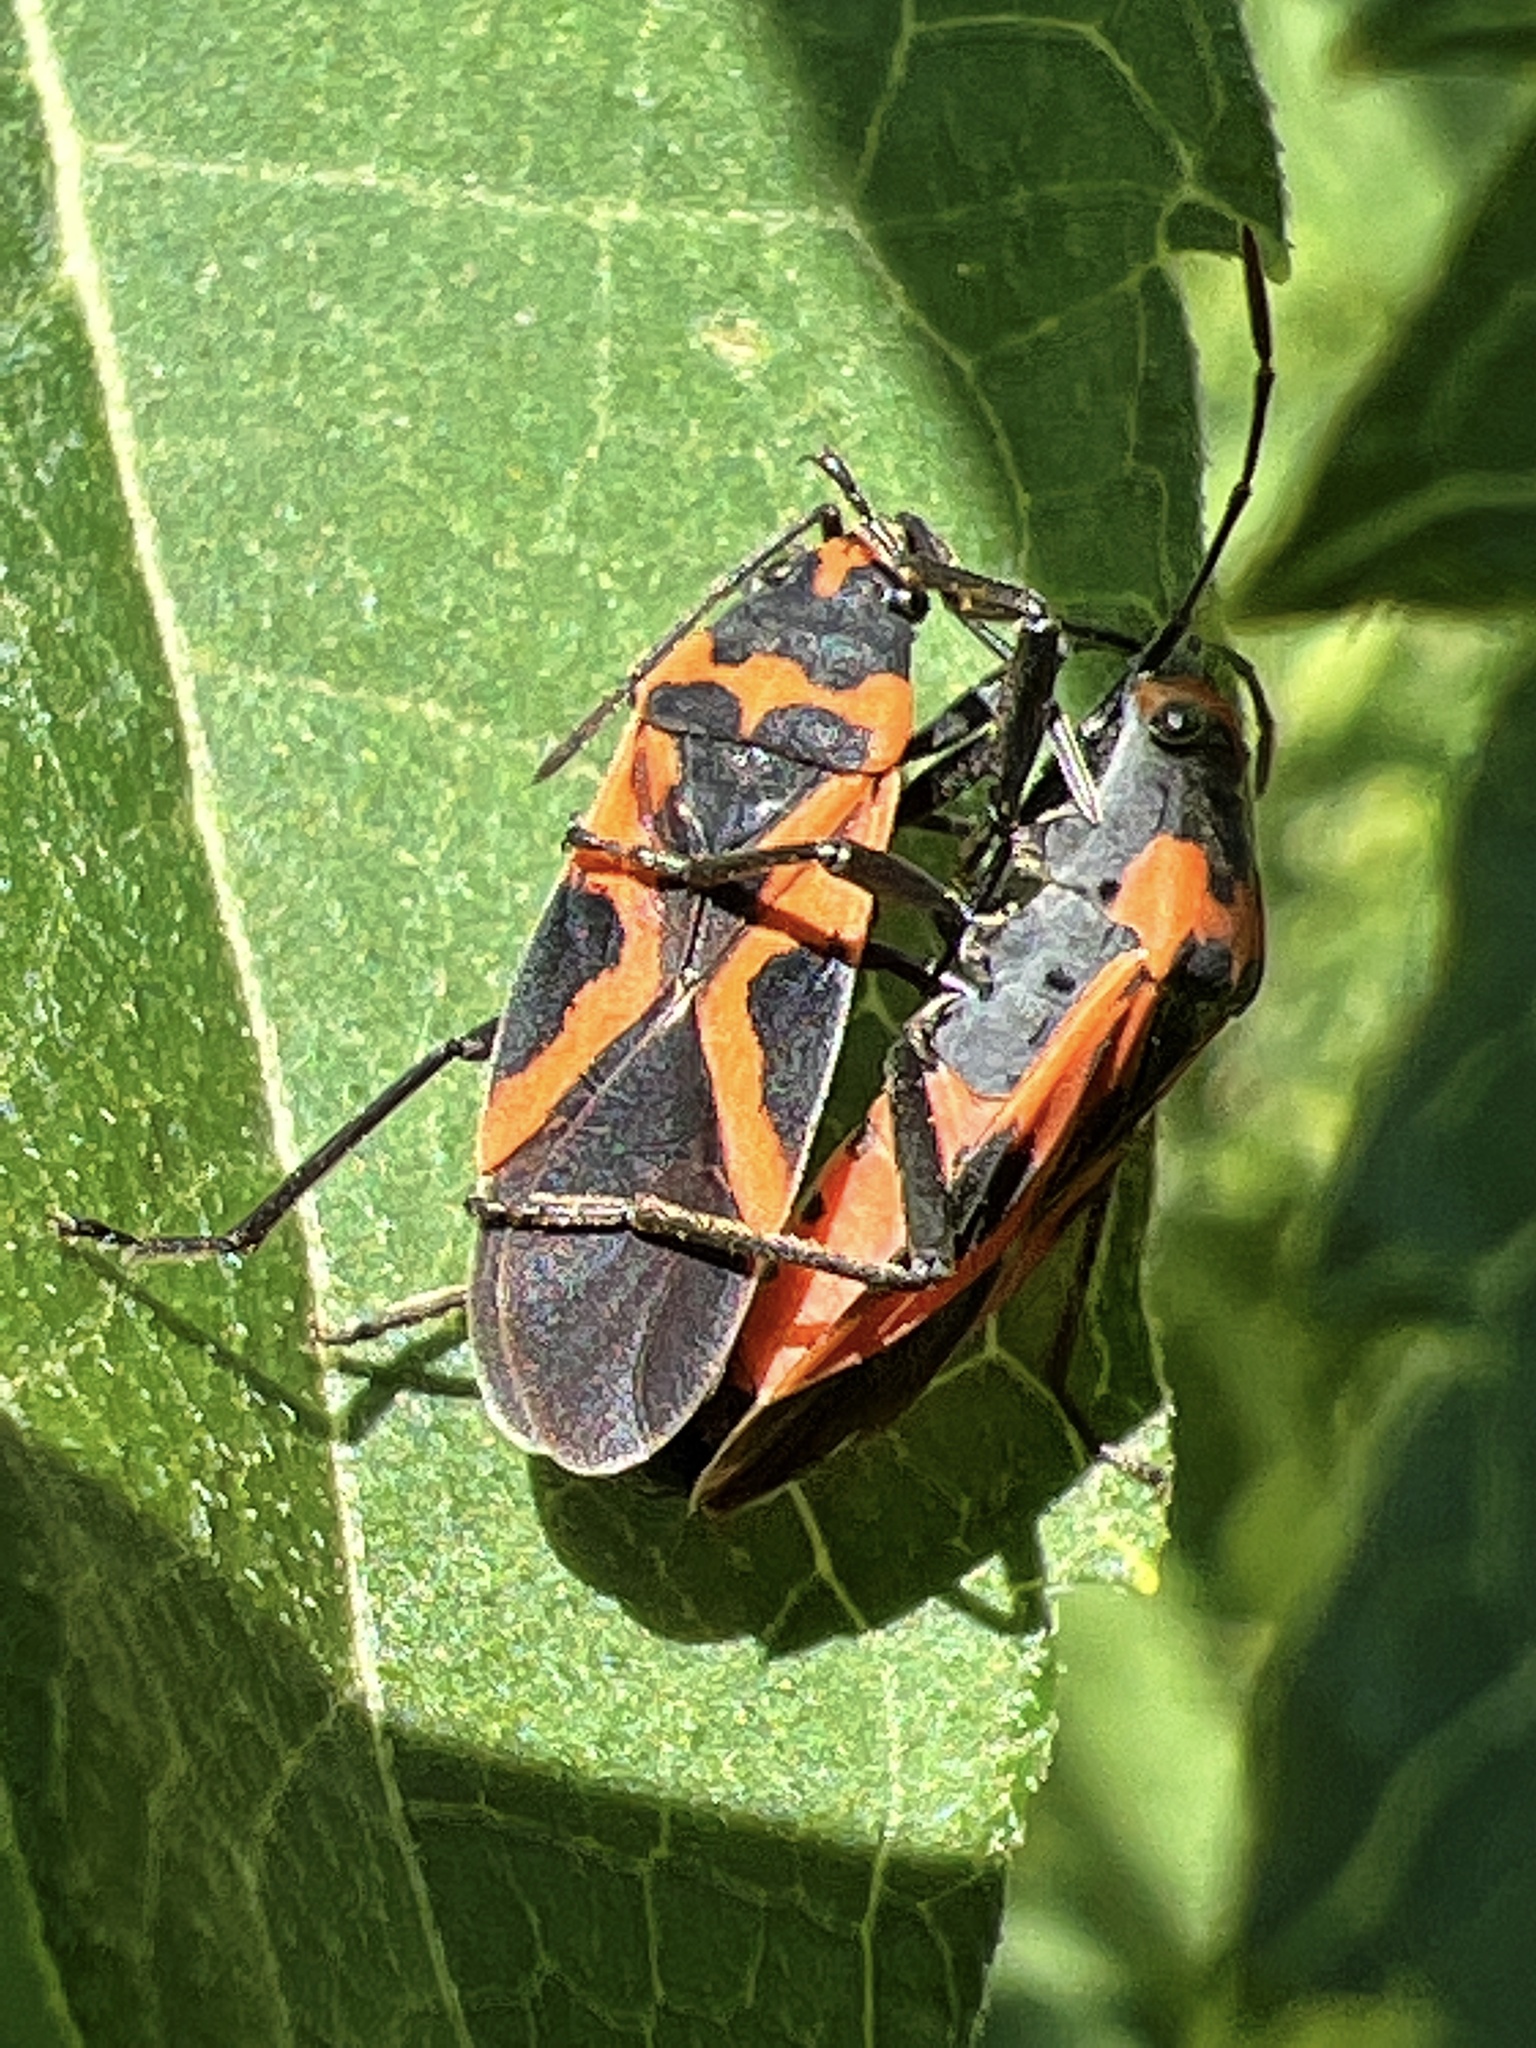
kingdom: Animalia
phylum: Arthropoda
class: Insecta
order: Hemiptera
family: Lygaeidae
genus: Lygaeus
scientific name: Lygaeus turcicus
